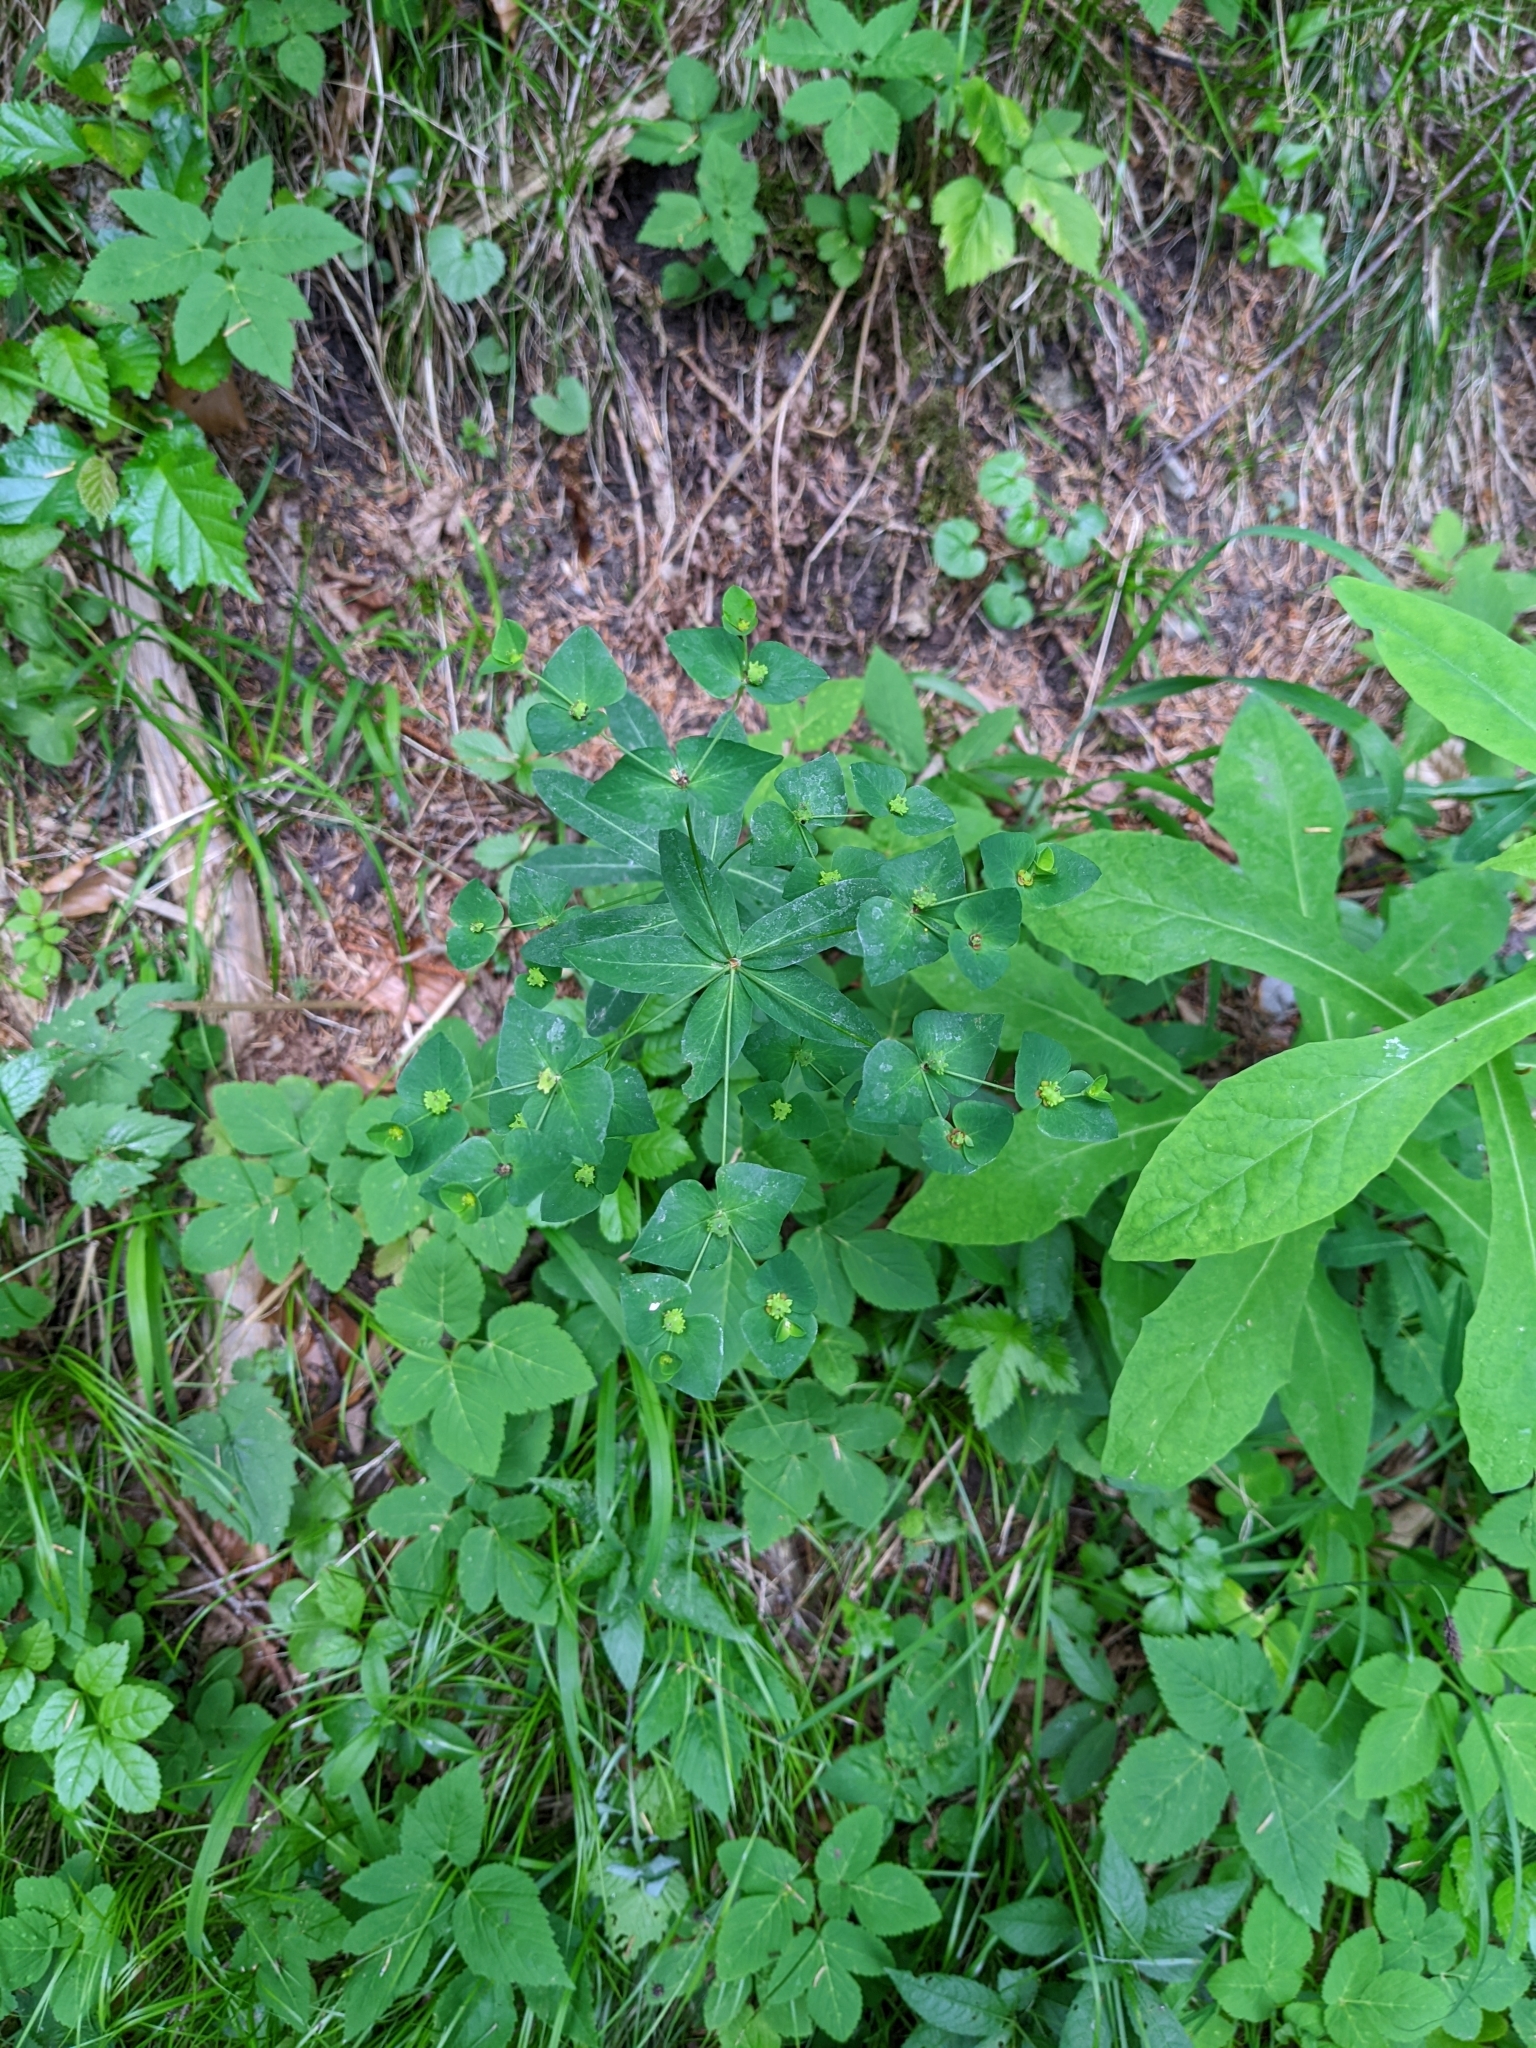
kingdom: Plantae
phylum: Tracheophyta
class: Magnoliopsida
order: Malpighiales
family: Euphorbiaceae
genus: Euphorbia
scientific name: Euphorbia dulcis
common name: Sweet spurge
